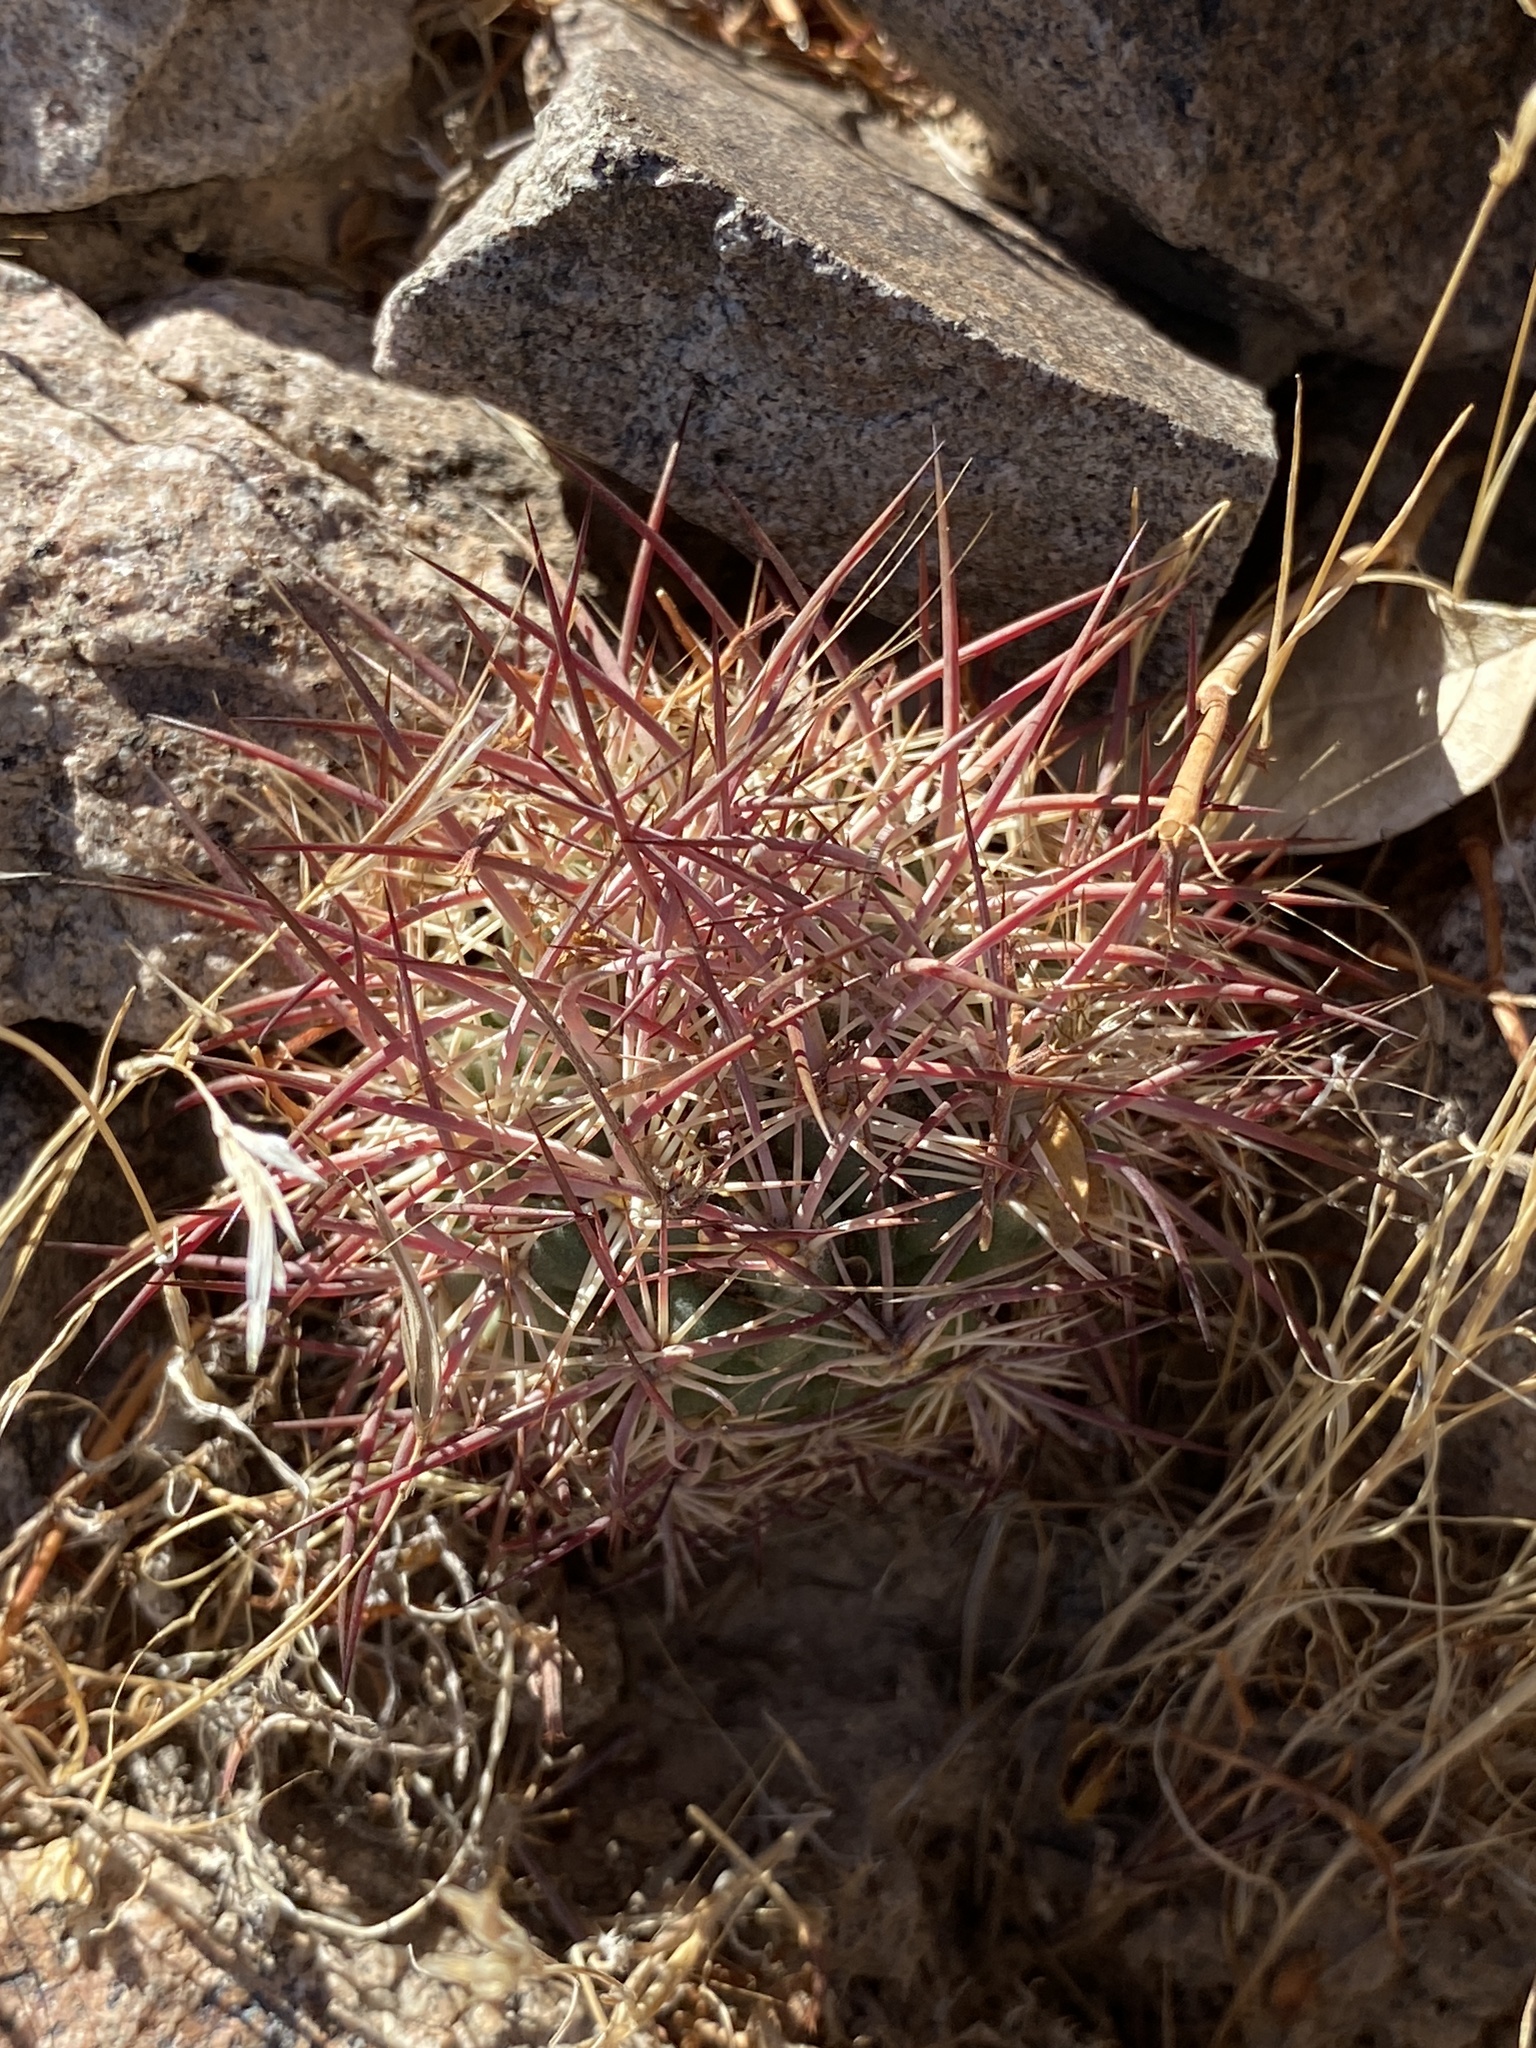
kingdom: Plantae
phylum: Tracheophyta
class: Magnoliopsida
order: Caryophyllales
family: Cactaceae
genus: Sclerocactus
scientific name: Sclerocactus johnsonii
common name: Eight-spine fishhook cactus
